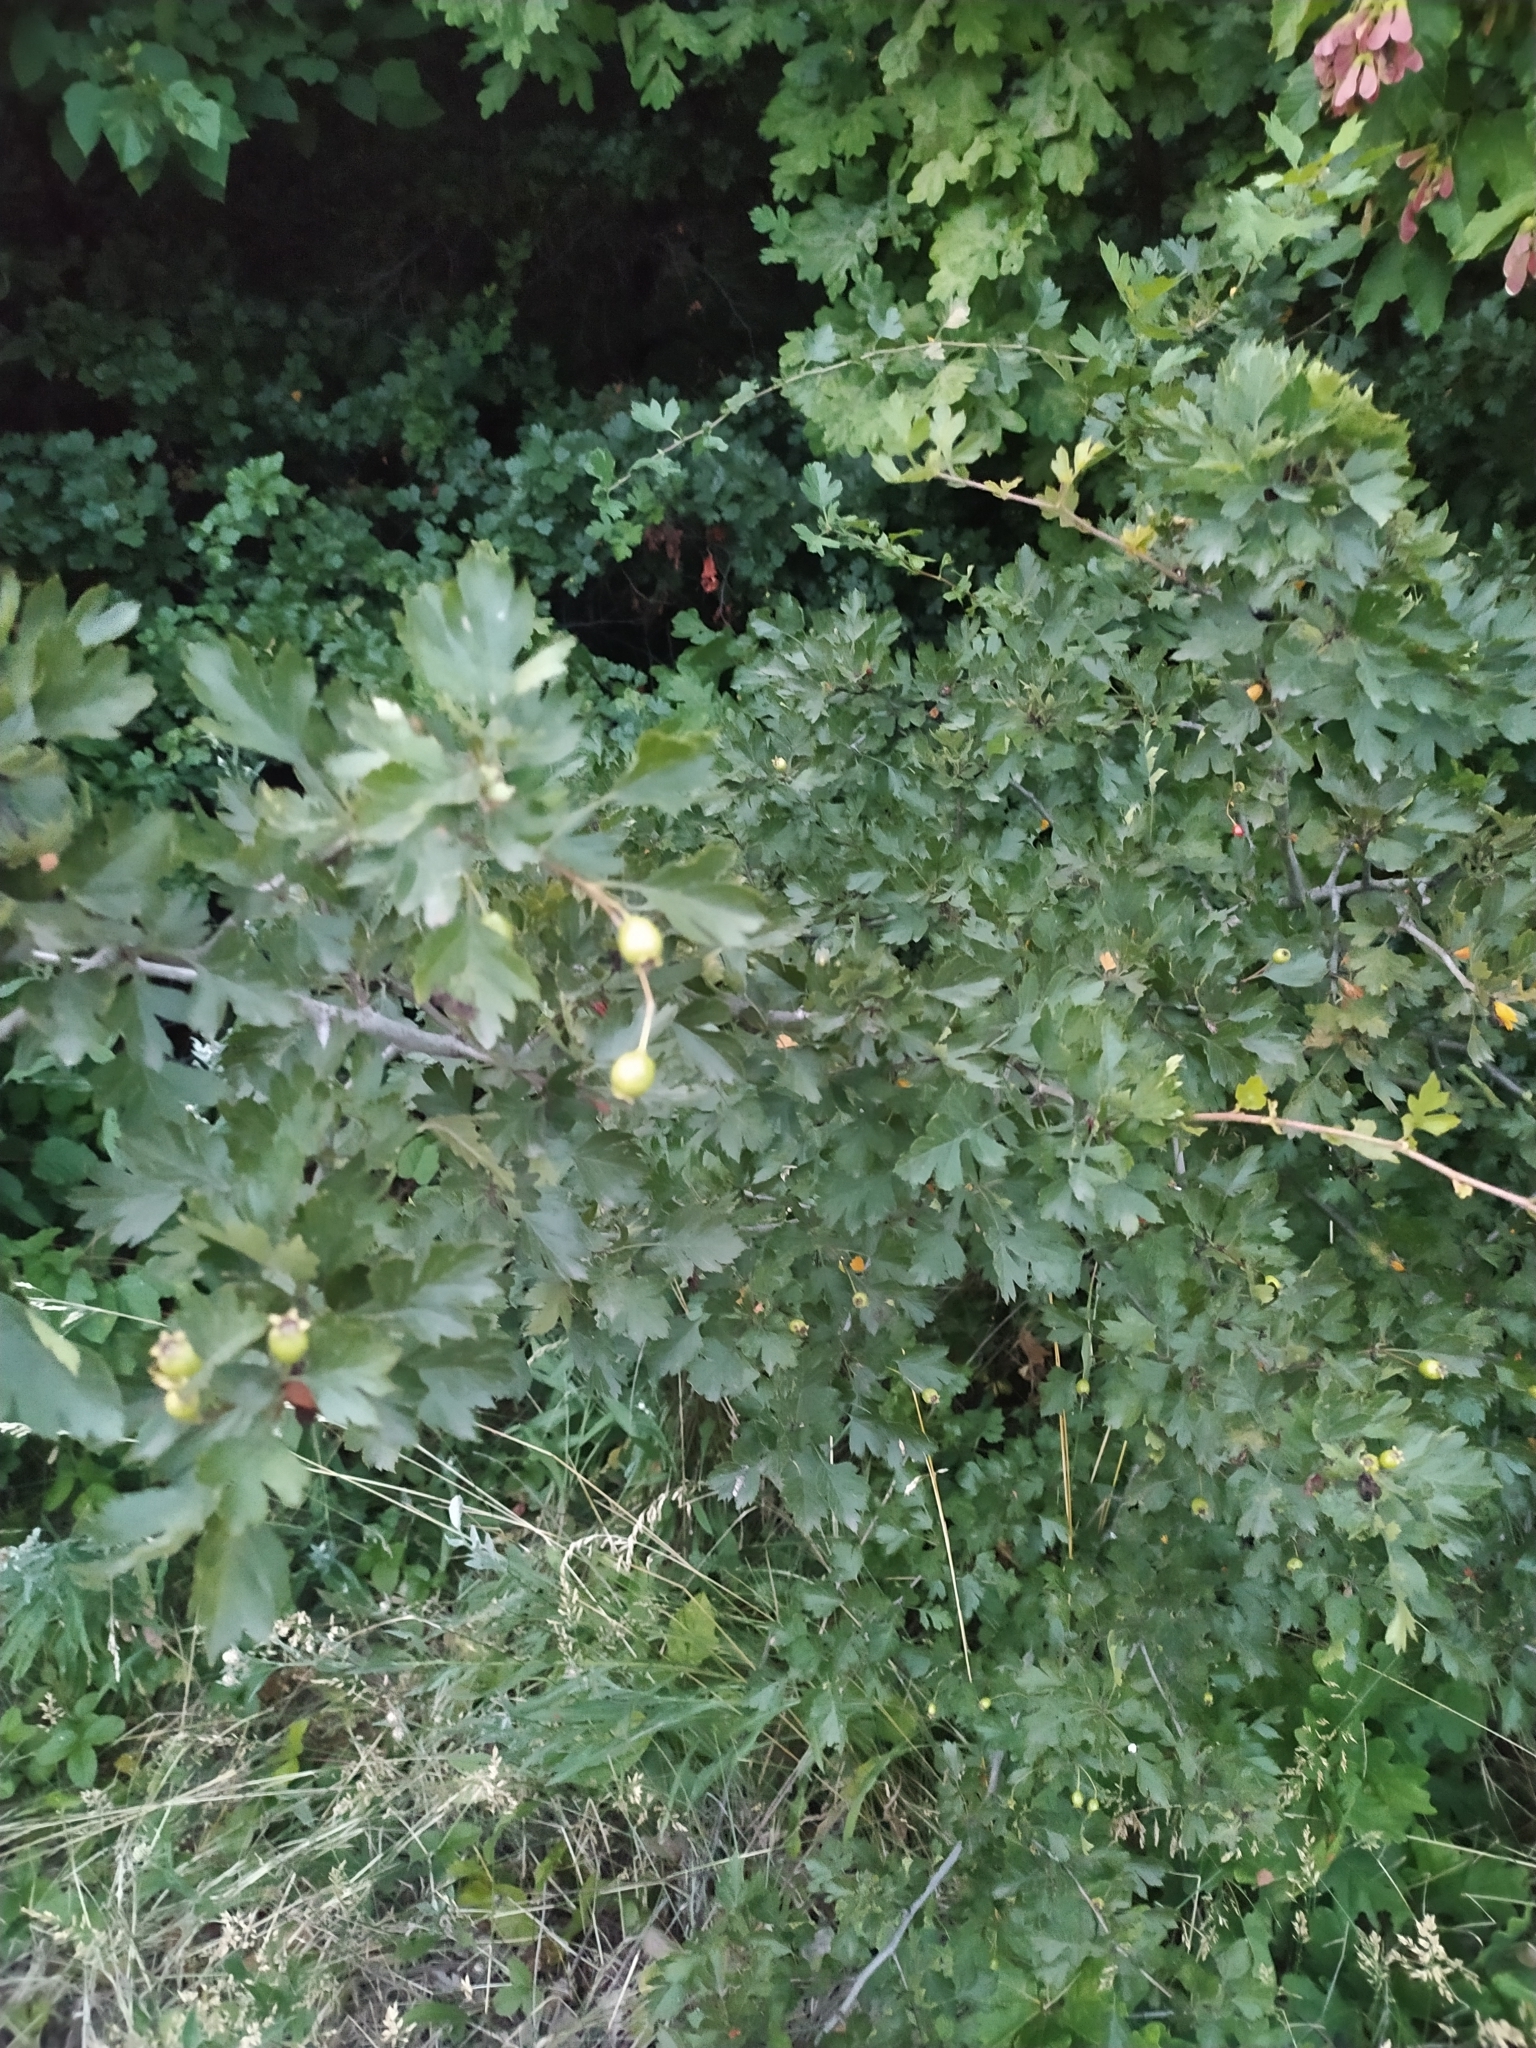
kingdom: Plantae
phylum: Tracheophyta
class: Magnoliopsida
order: Rosales
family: Rosaceae
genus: Crataegus
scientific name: Crataegus monogyna
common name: Hawthorn
